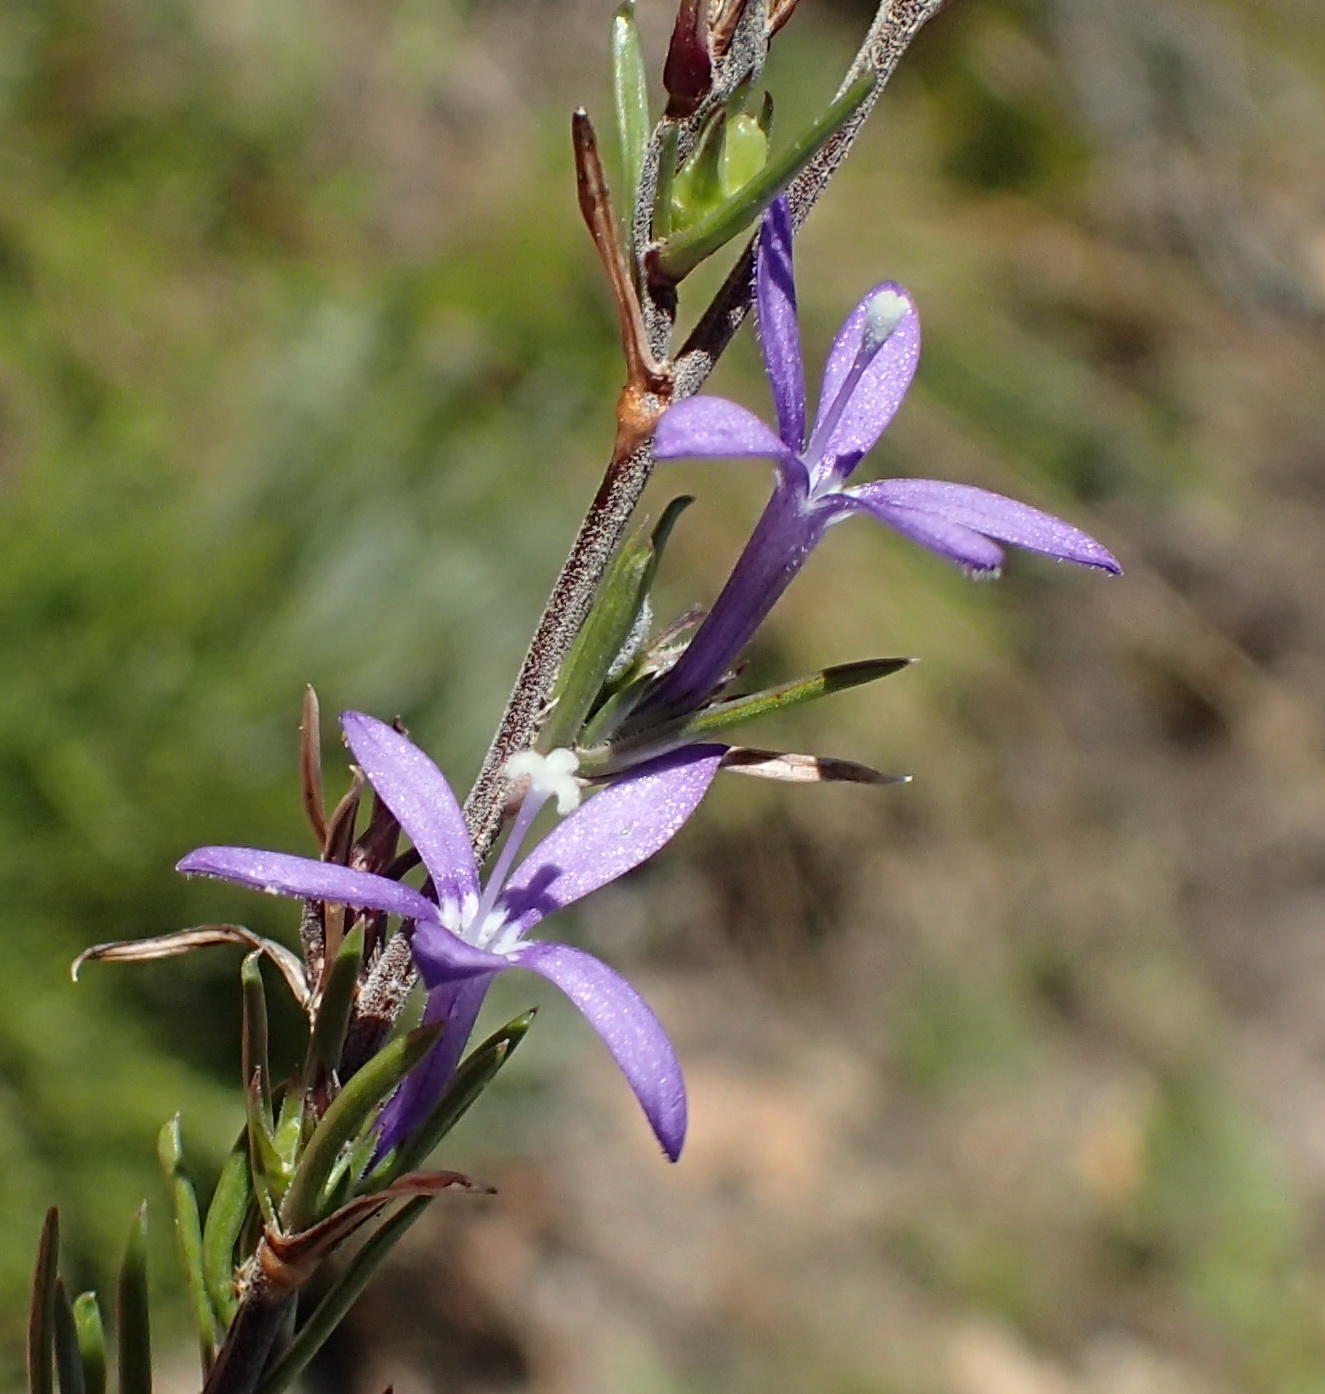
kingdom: Plantae
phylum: Tracheophyta
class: Magnoliopsida
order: Asterales
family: Campanulaceae
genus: Theilera
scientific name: Theilera guthriei
